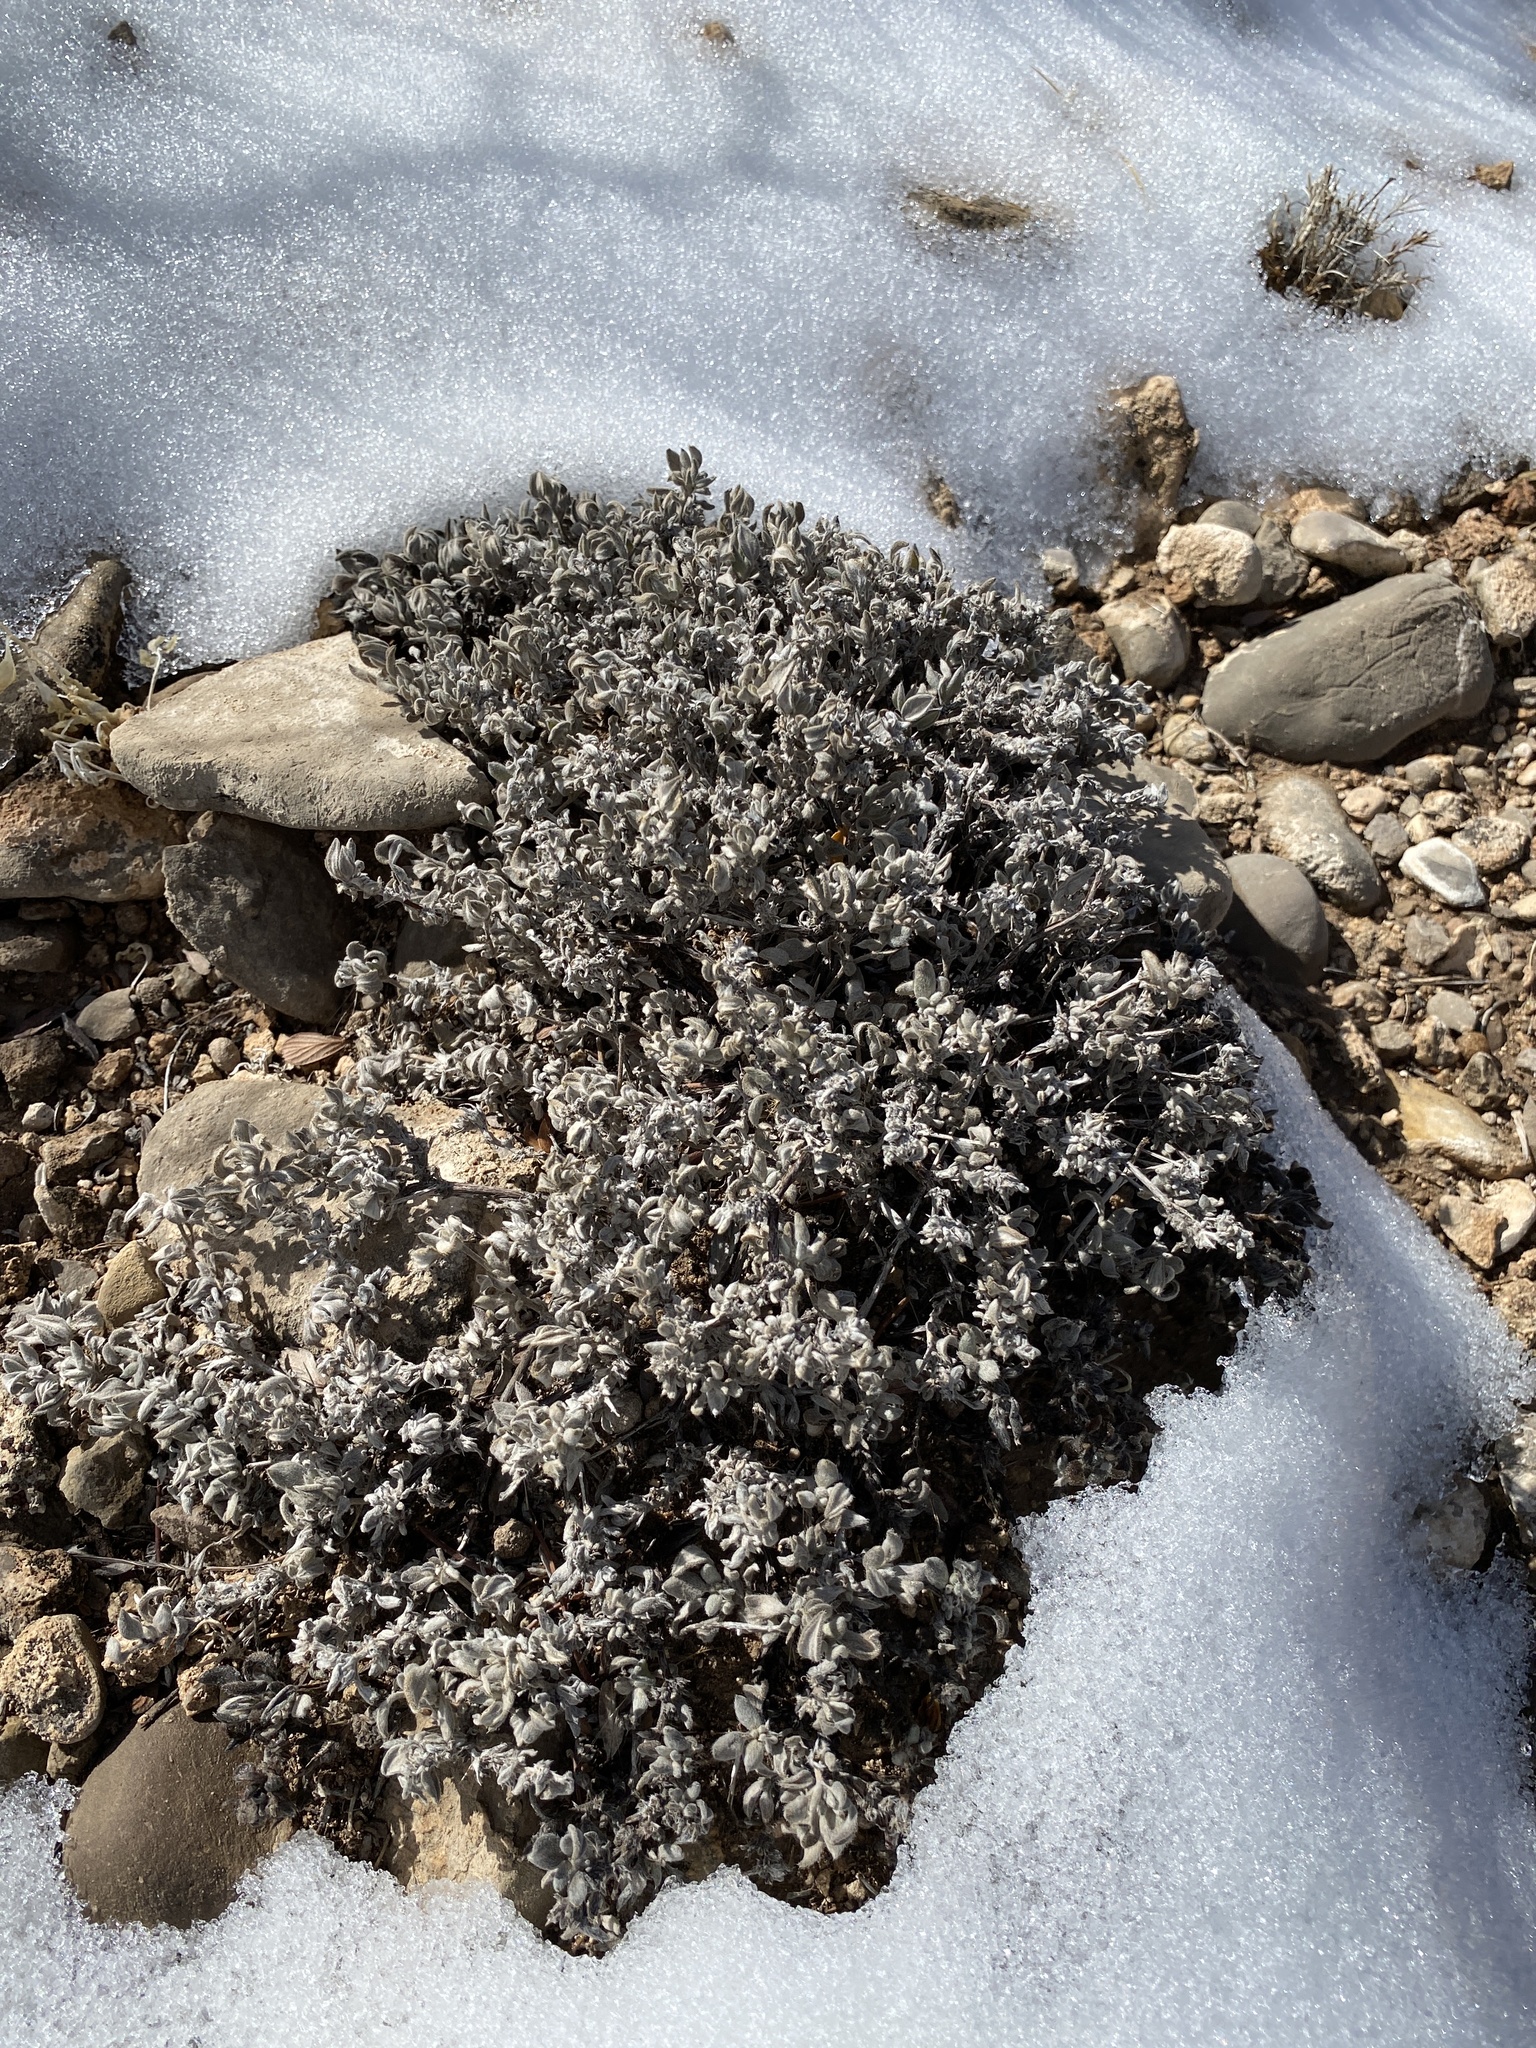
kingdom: Plantae
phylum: Tracheophyta
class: Magnoliopsida
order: Boraginales
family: Ehretiaceae
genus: Tiquilia
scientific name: Tiquilia canescens
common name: Hairy tiquilia
